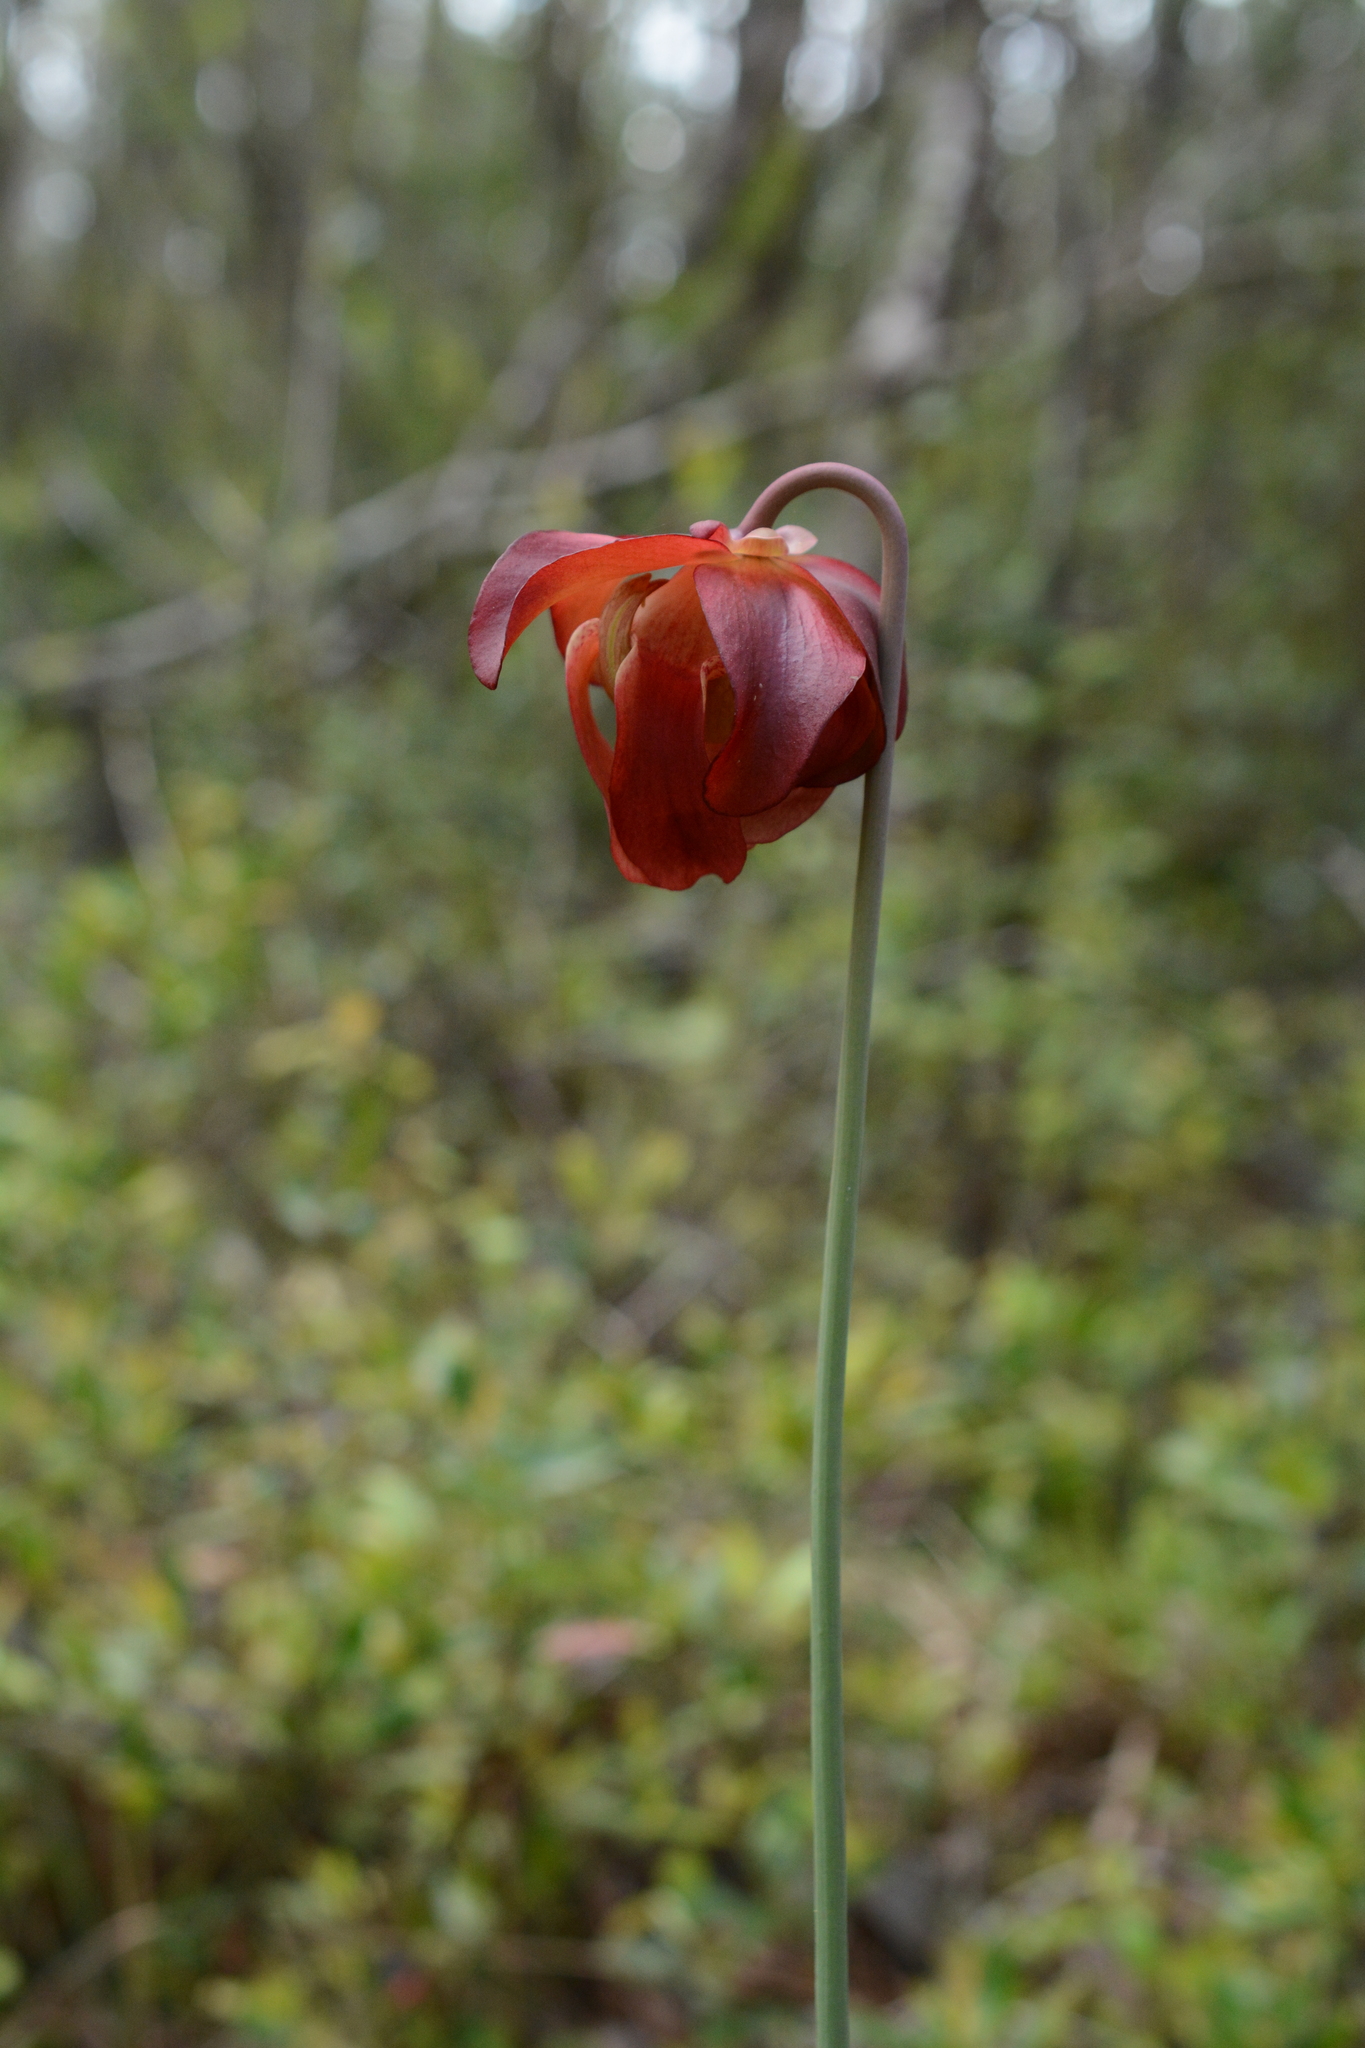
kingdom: Plantae
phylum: Tracheophyta
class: Magnoliopsida
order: Ericales
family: Sarraceniaceae
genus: Sarracenia
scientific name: Sarracenia leucophylla
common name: Purple trumpetleaf
